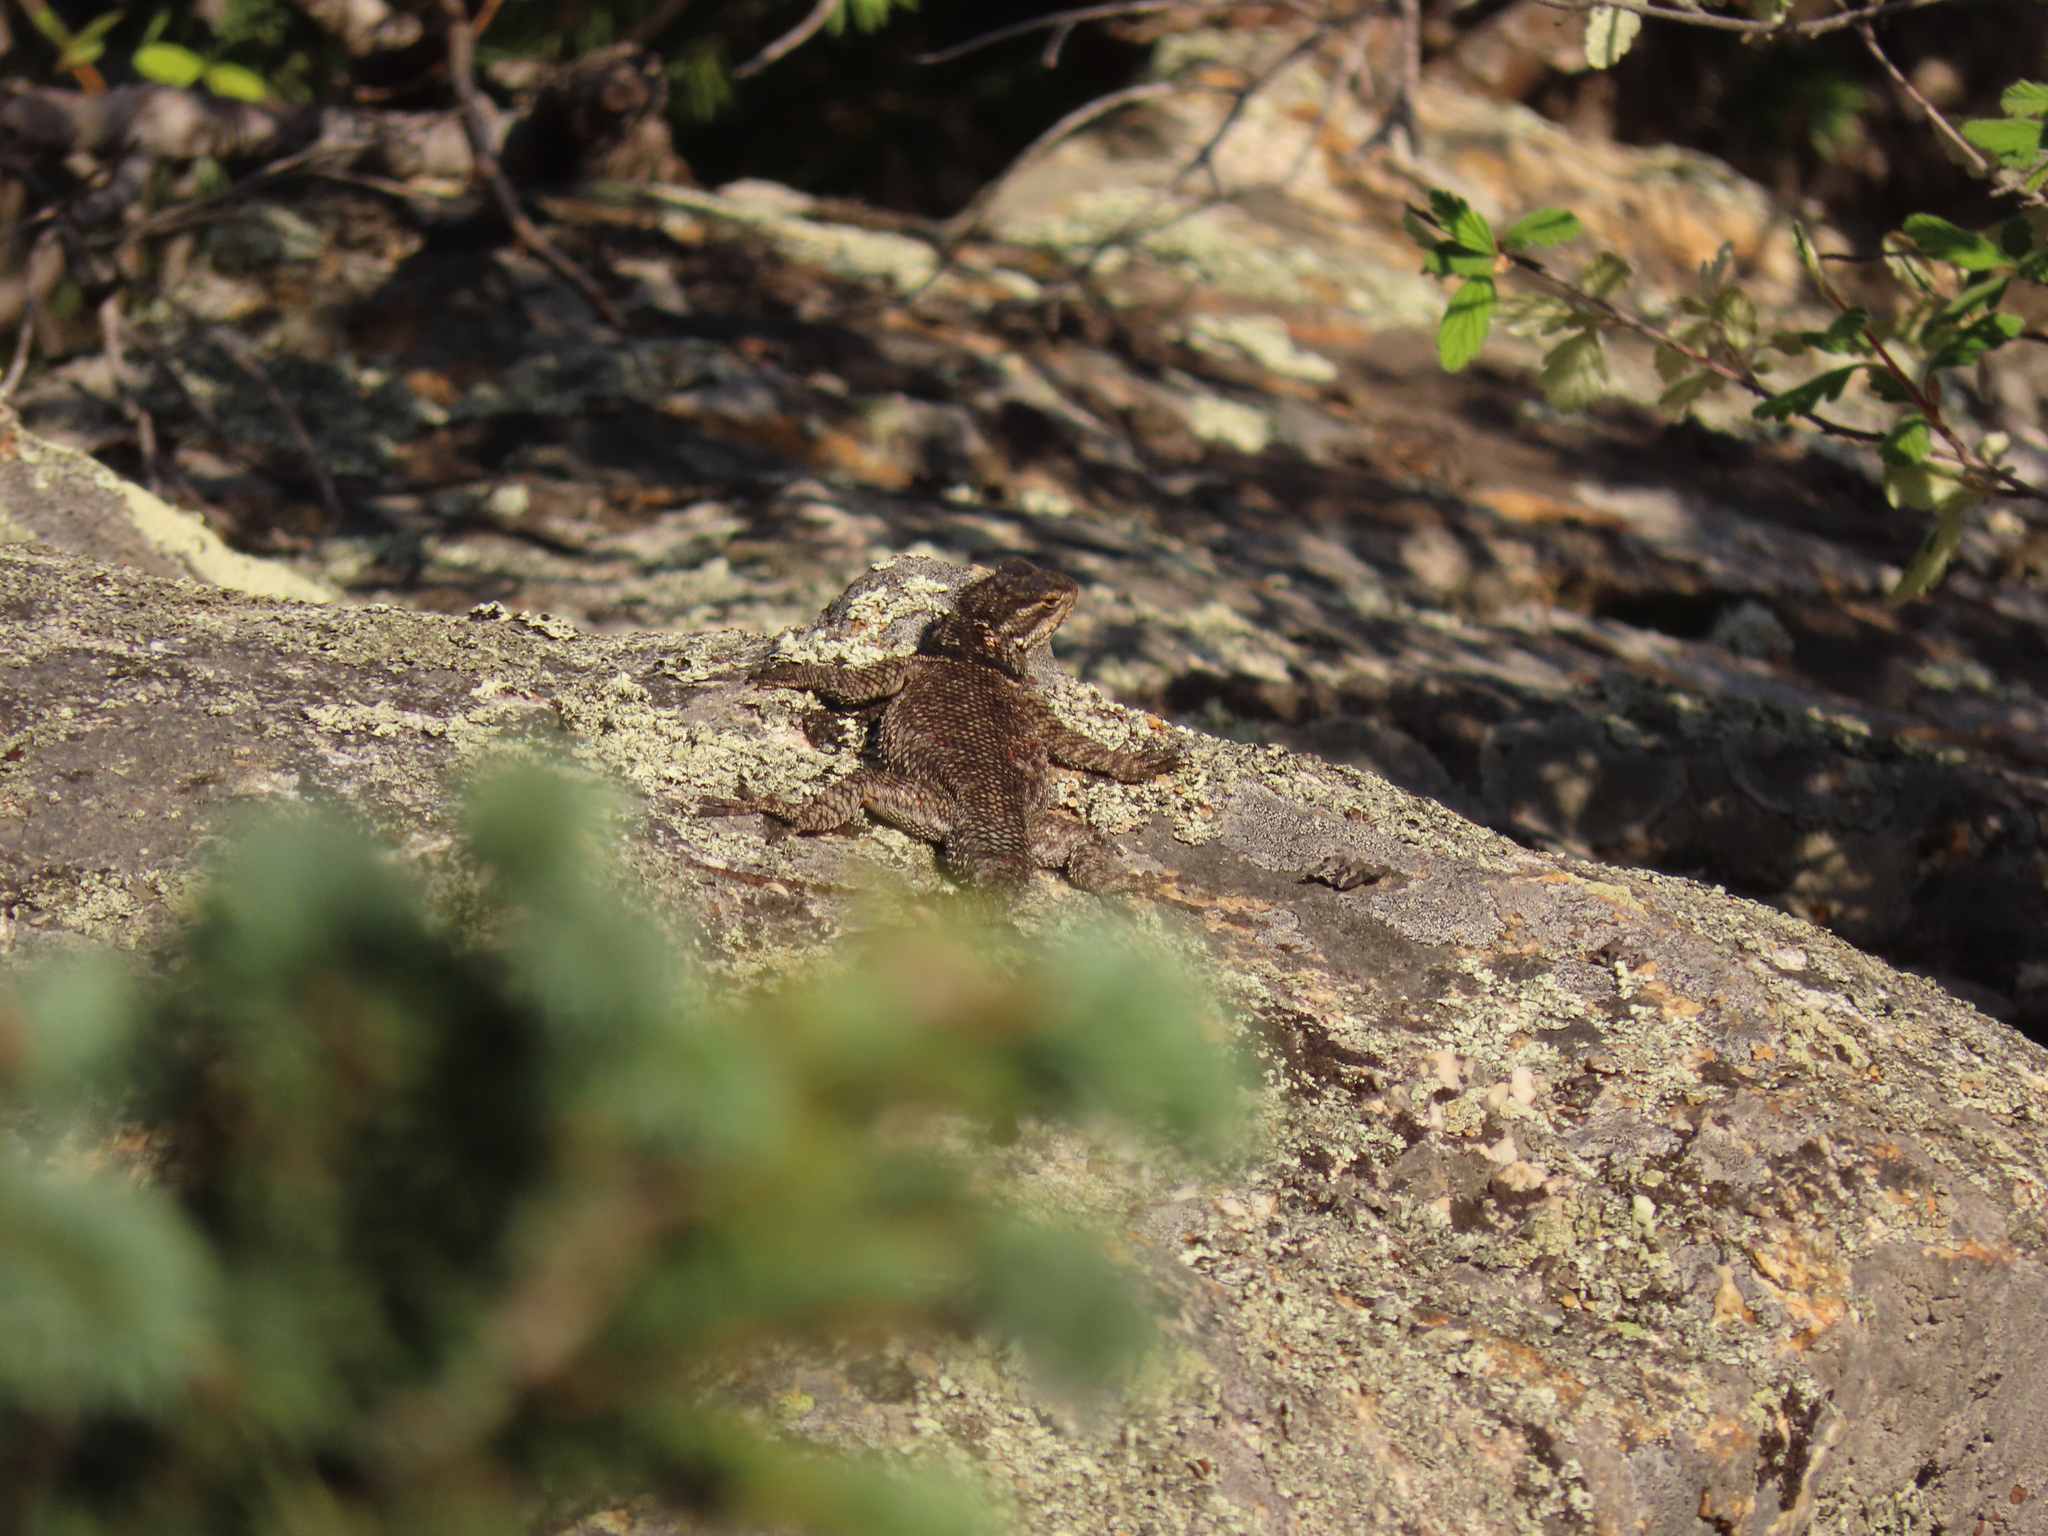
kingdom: Animalia
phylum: Chordata
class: Squamata
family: Phrynosomatidae
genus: Sceloporus
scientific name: Sceloporus jarrovii
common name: Yarrow's spiny lizard
